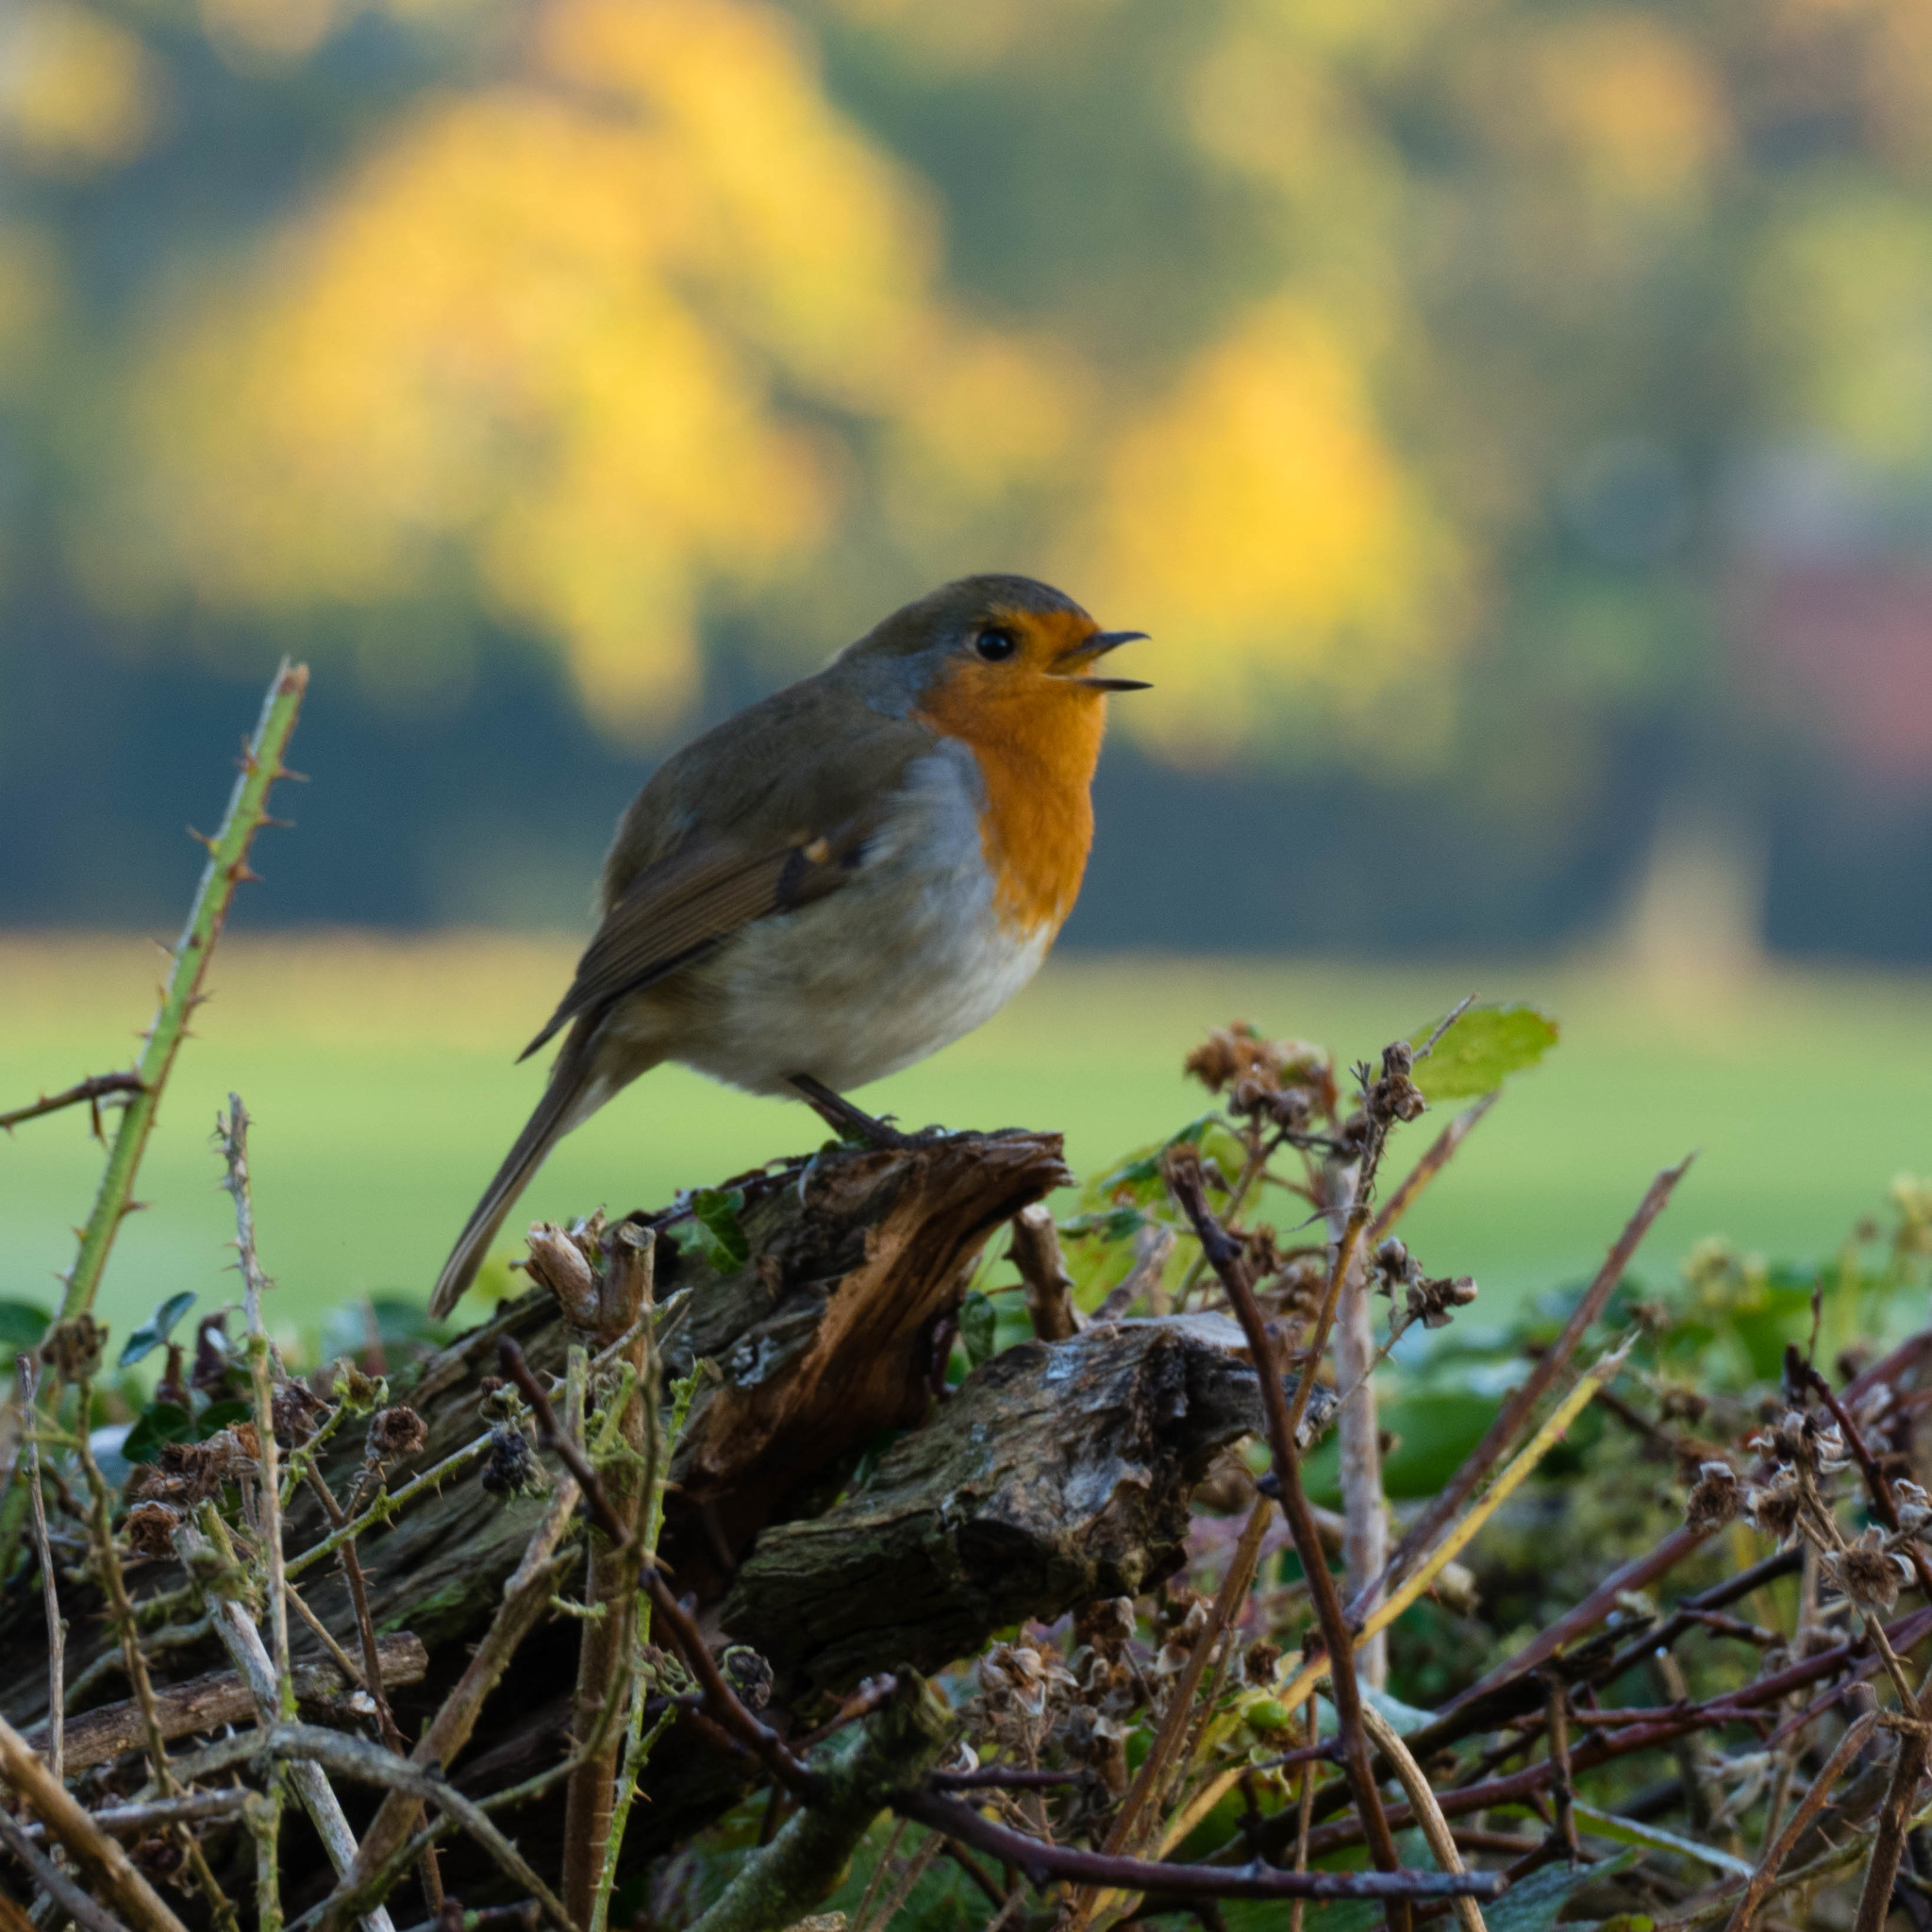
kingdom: Animalia
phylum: Chordata
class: Aves
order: Passeriformes
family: Muscicapidae
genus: Erithacus
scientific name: Erithacus rubecula
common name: European robin
